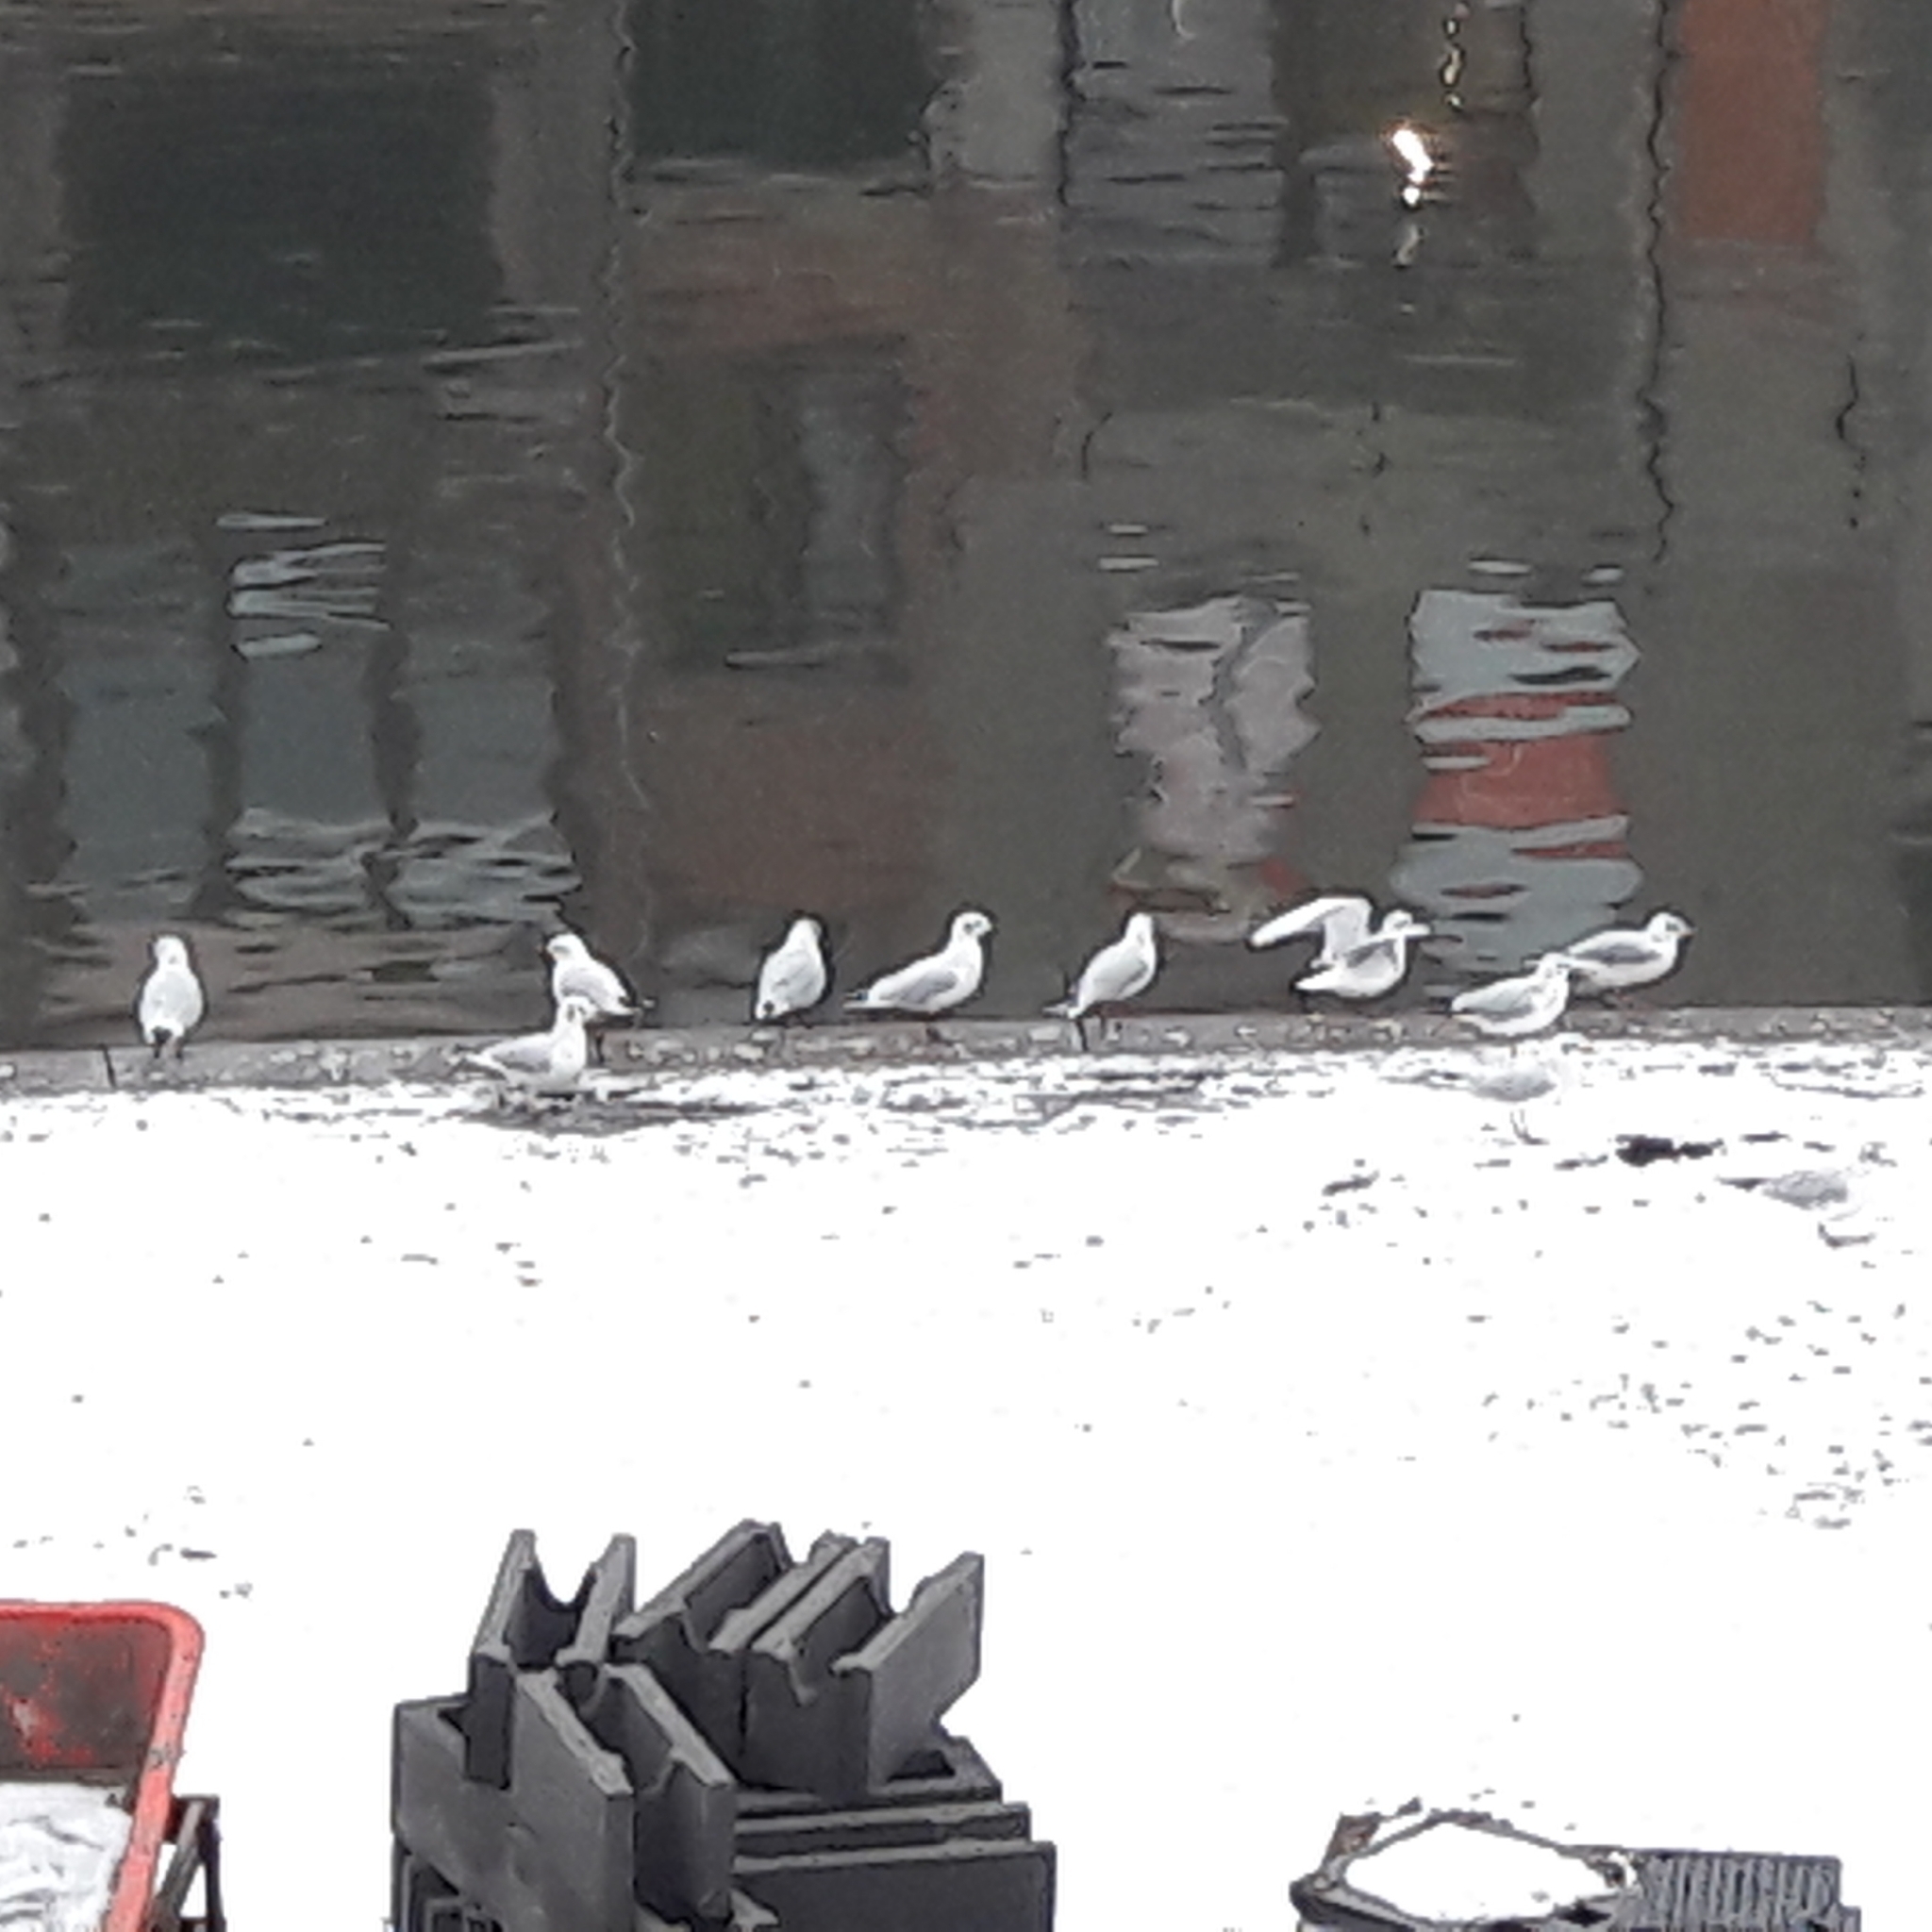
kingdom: Animalia
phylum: Chordata
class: Aves
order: Charadriiformes
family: Laridae
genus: Chroicocephalus
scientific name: Chroicocephalus ridibundus
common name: Black-headed gull
